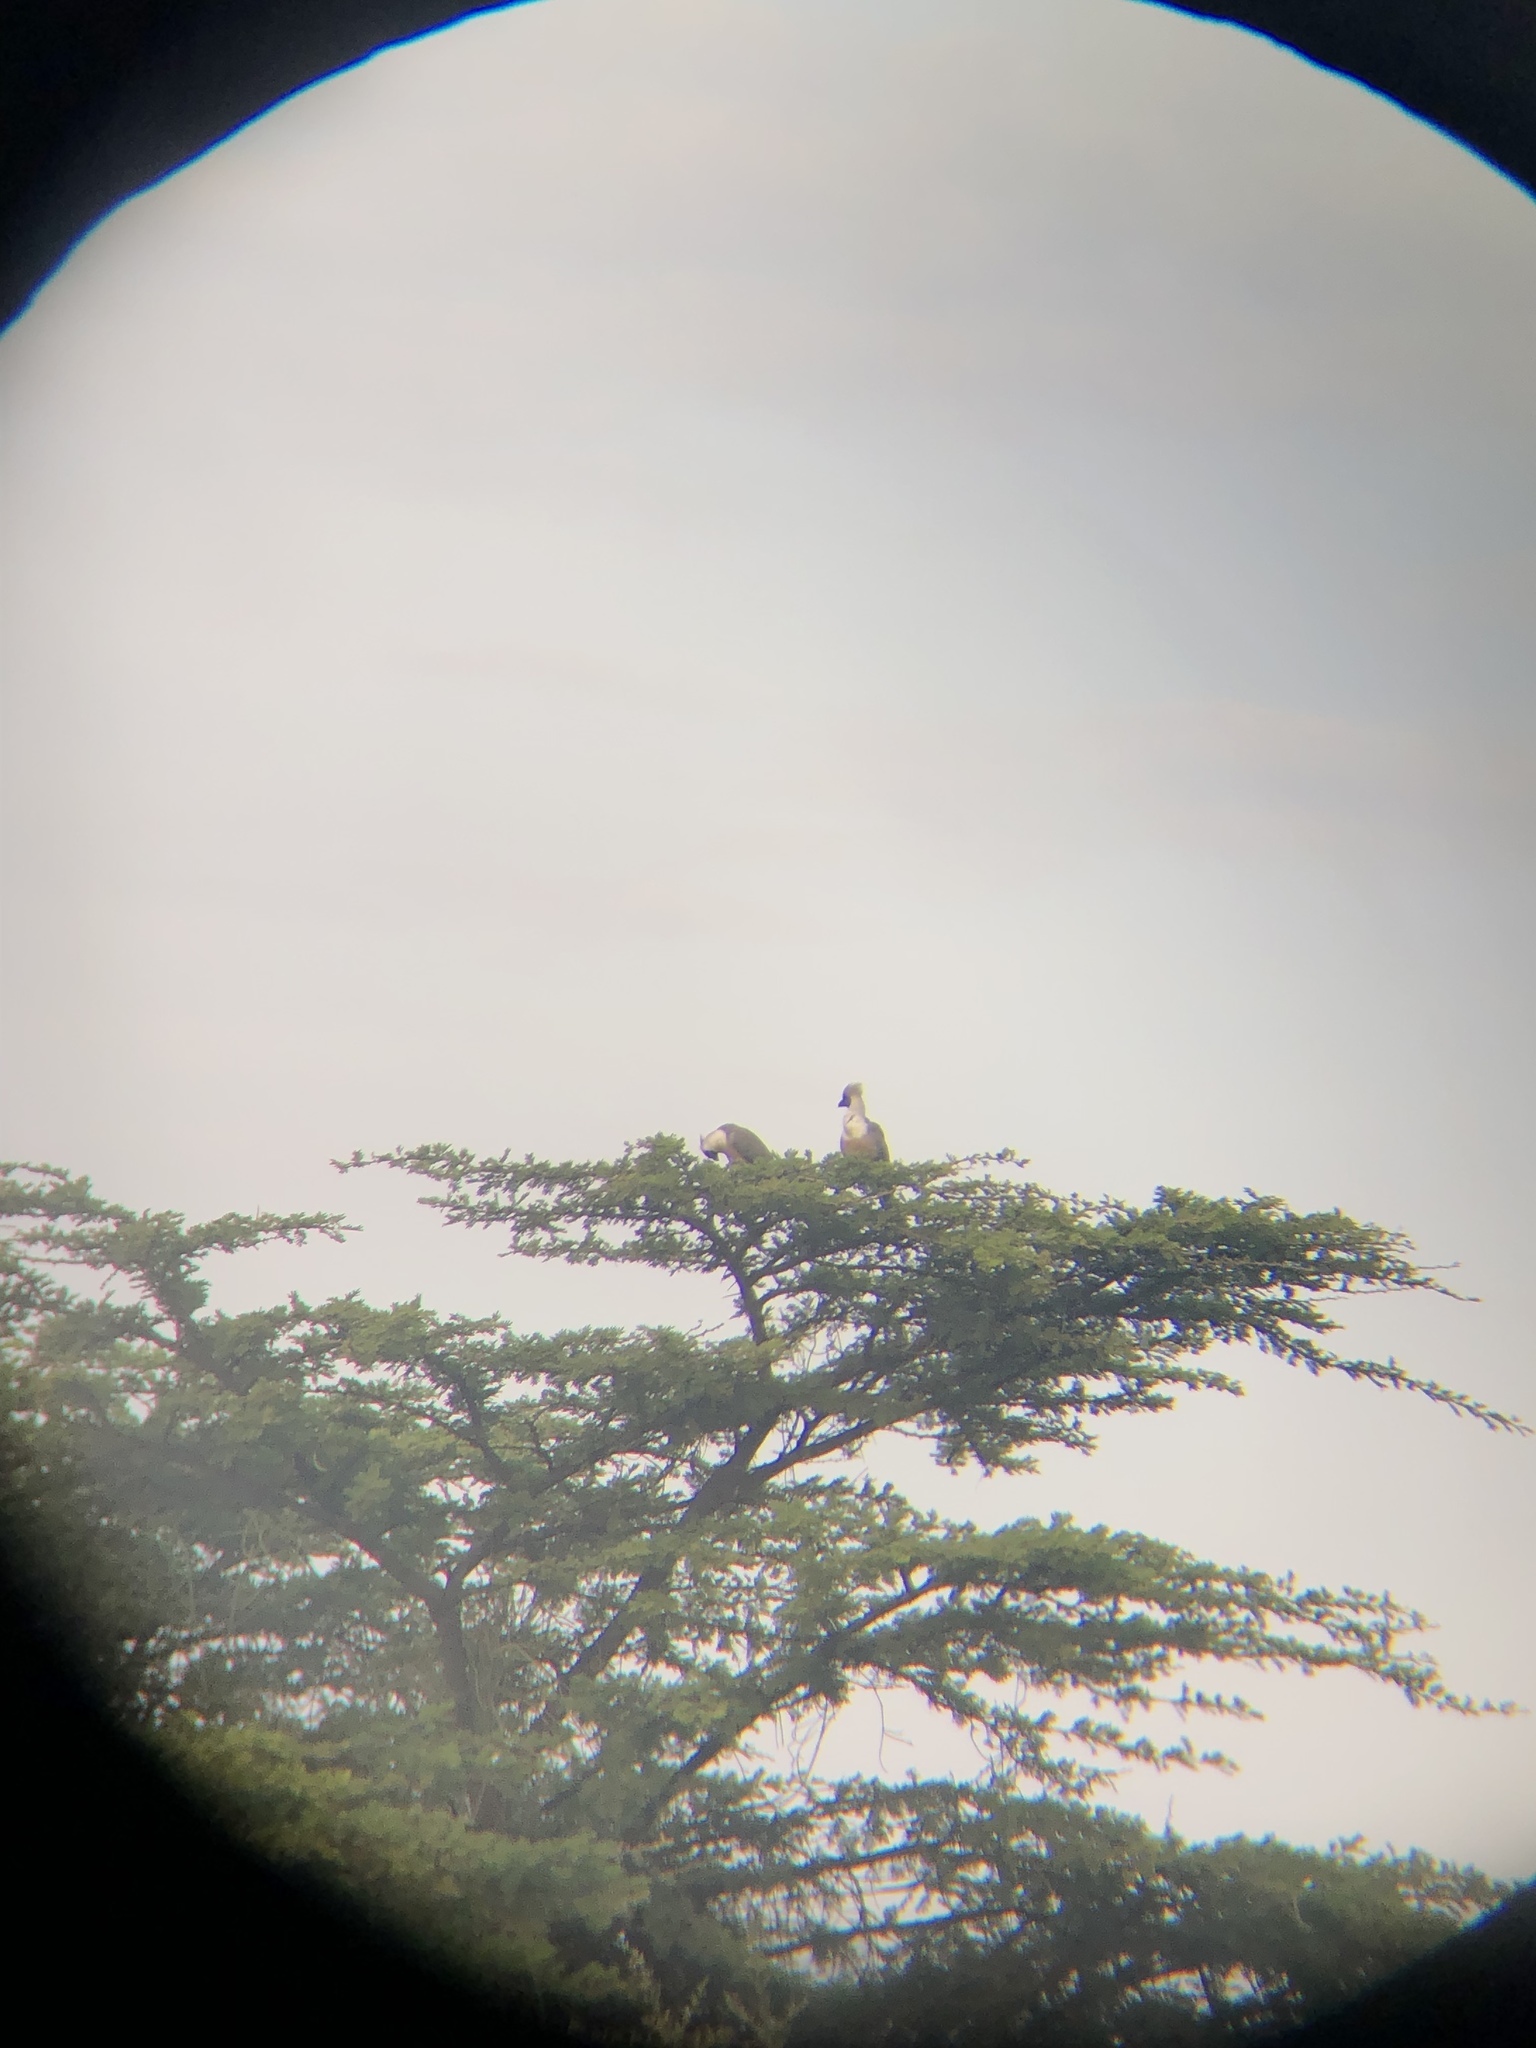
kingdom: Animalia
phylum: Chordata
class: Aves
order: Musophagiformes
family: Musophagidae
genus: Corythaixoides
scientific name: Corythaixoides personatus
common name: Bare-faced go-away-bird
